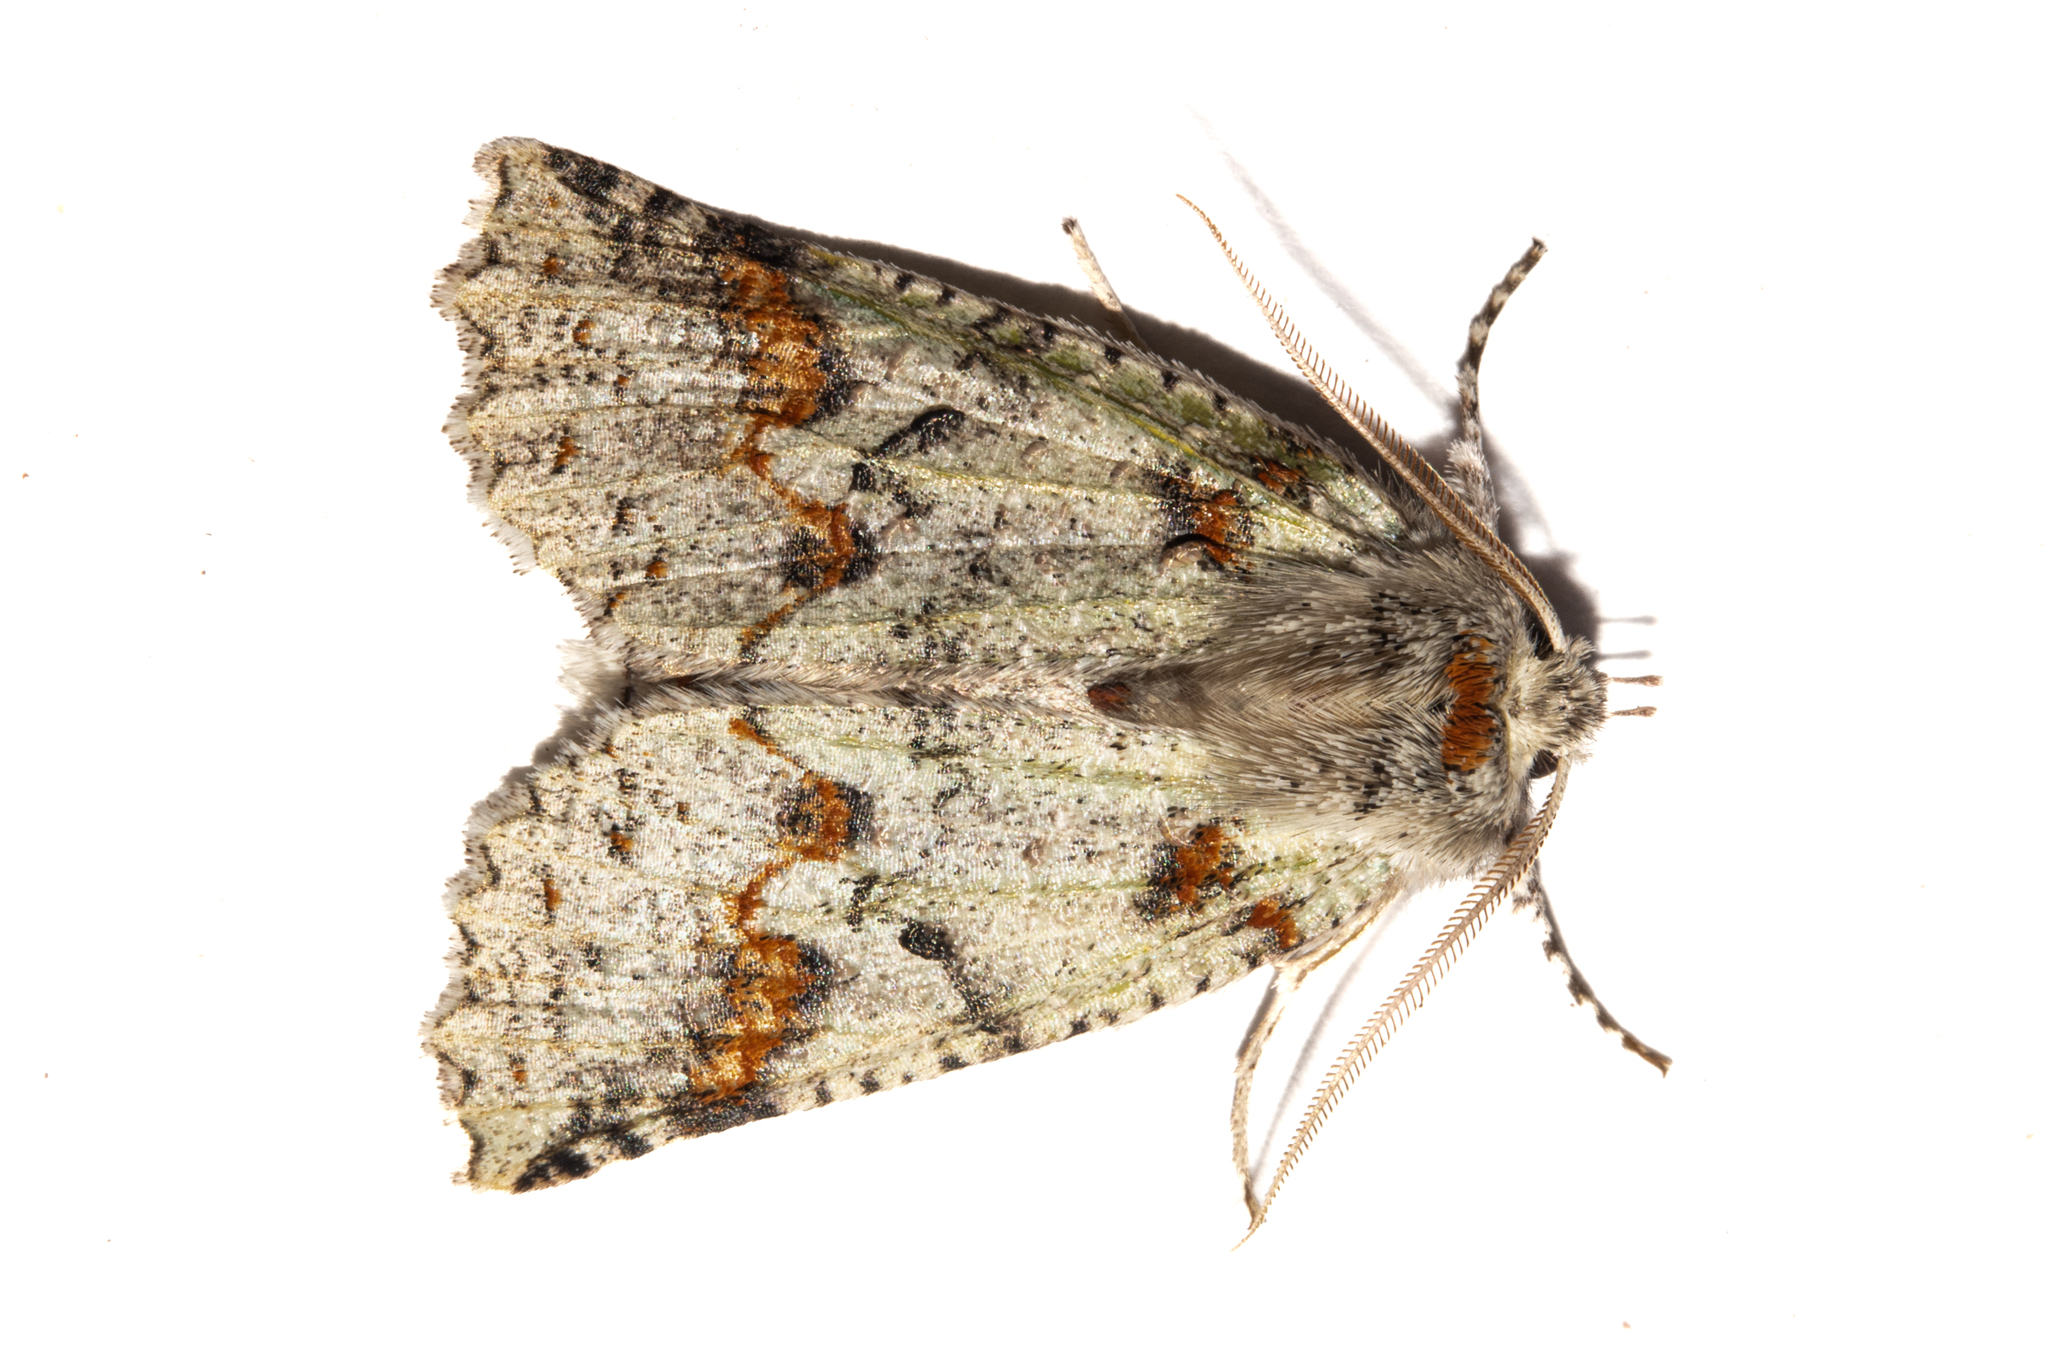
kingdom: Animalia
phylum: Arthropoda
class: Insecta
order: Lepidoptera
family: Geometridae
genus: Declana
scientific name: Declana floccosa
